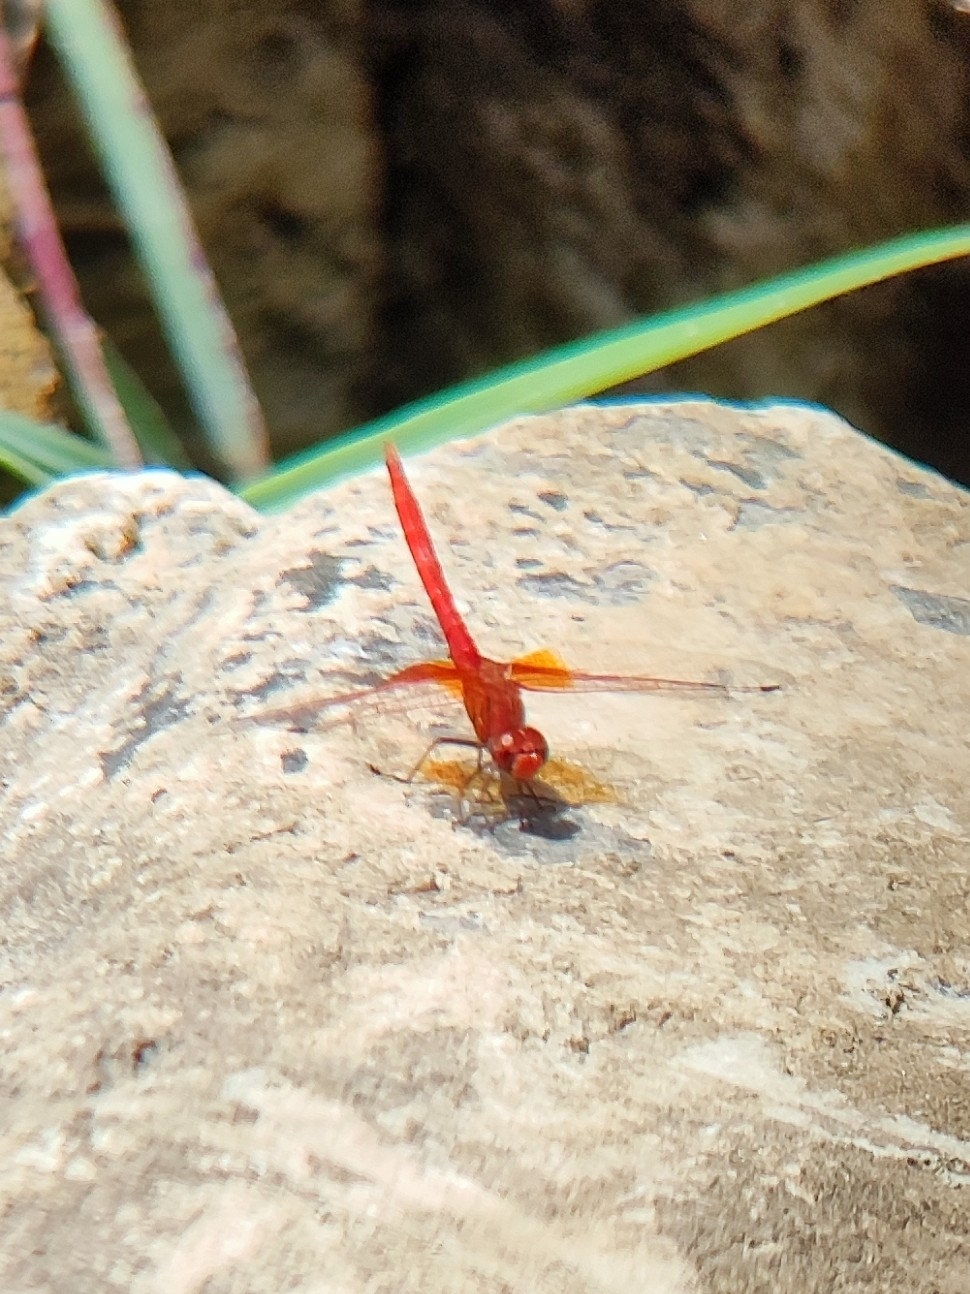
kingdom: Animalia
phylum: Arthropoda
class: Insecta
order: Odonata
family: Libellulidae
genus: Trithemis
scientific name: Trithemis kirbyi
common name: Kirby's dropwing
